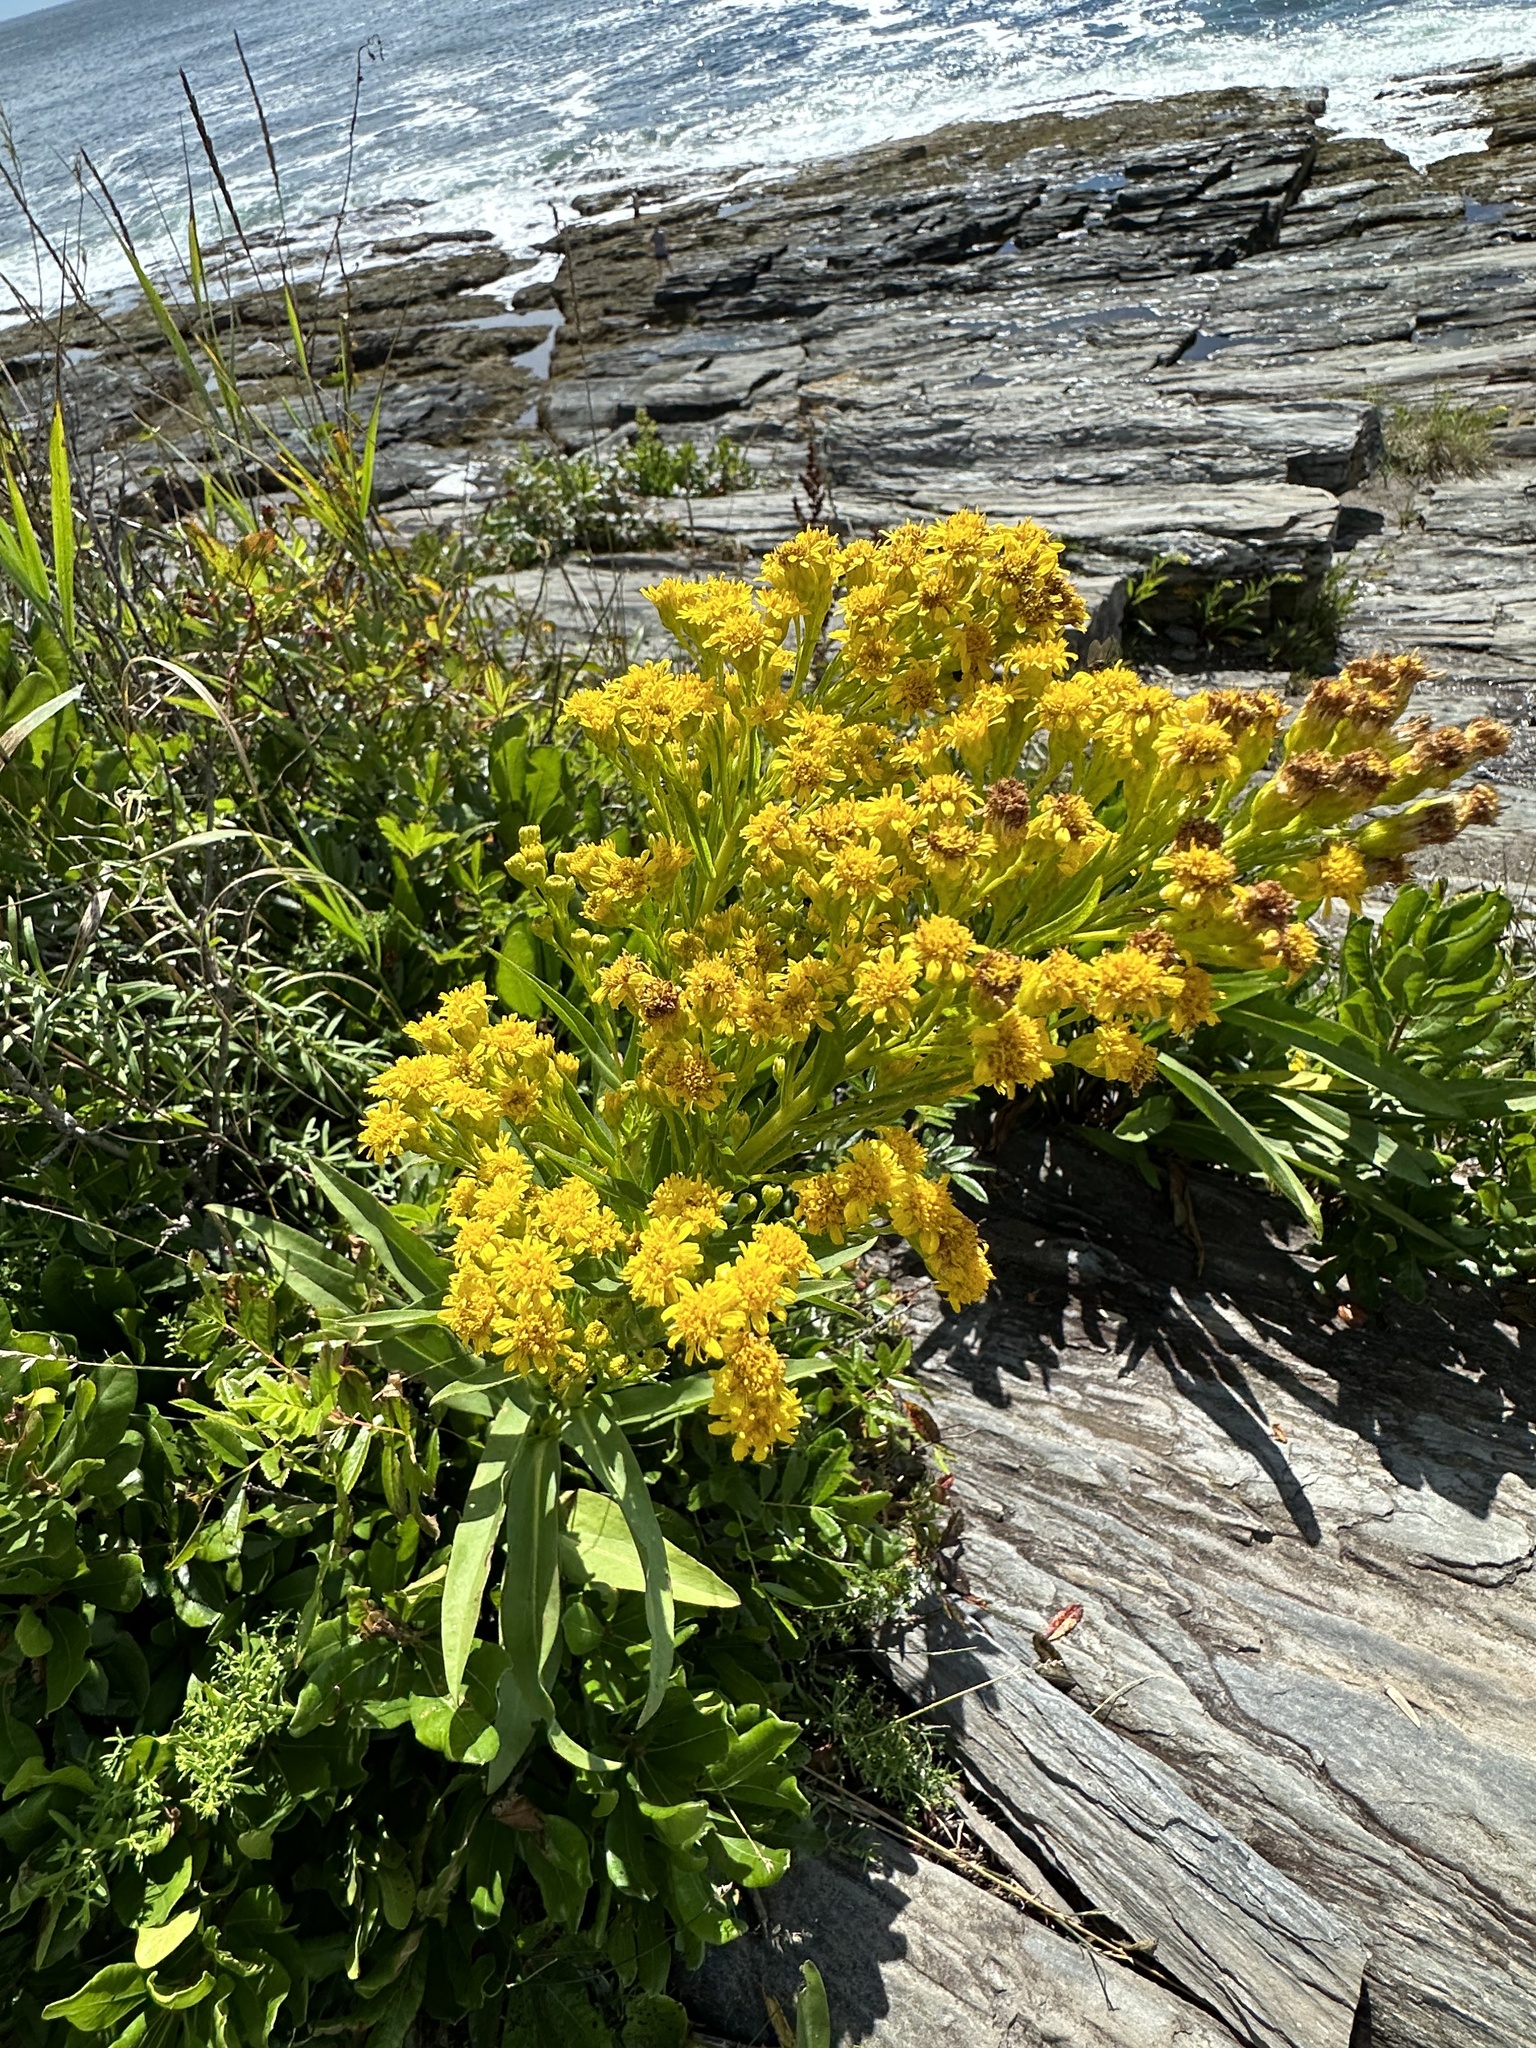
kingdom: Plantae
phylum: Tracheophyta
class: Magnoliopsida
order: Asterales
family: Asteraceae
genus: Solidago
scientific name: Solidago sempervirens
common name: Salt-marsh goldenrod
